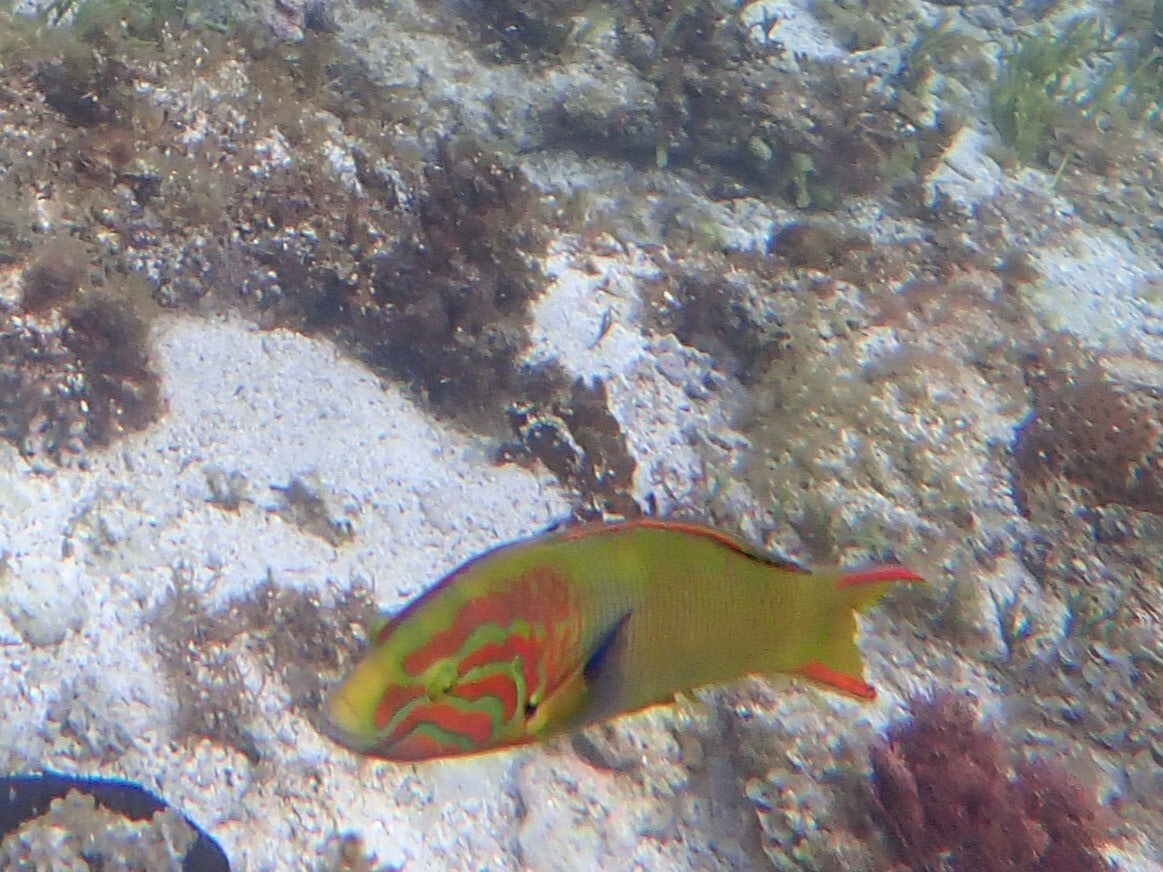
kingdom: Animalia
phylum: Chordata
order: Perciformes
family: Labridae
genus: Thalassoma
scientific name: Thalassoma lutescens
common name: Green moon wrasse
